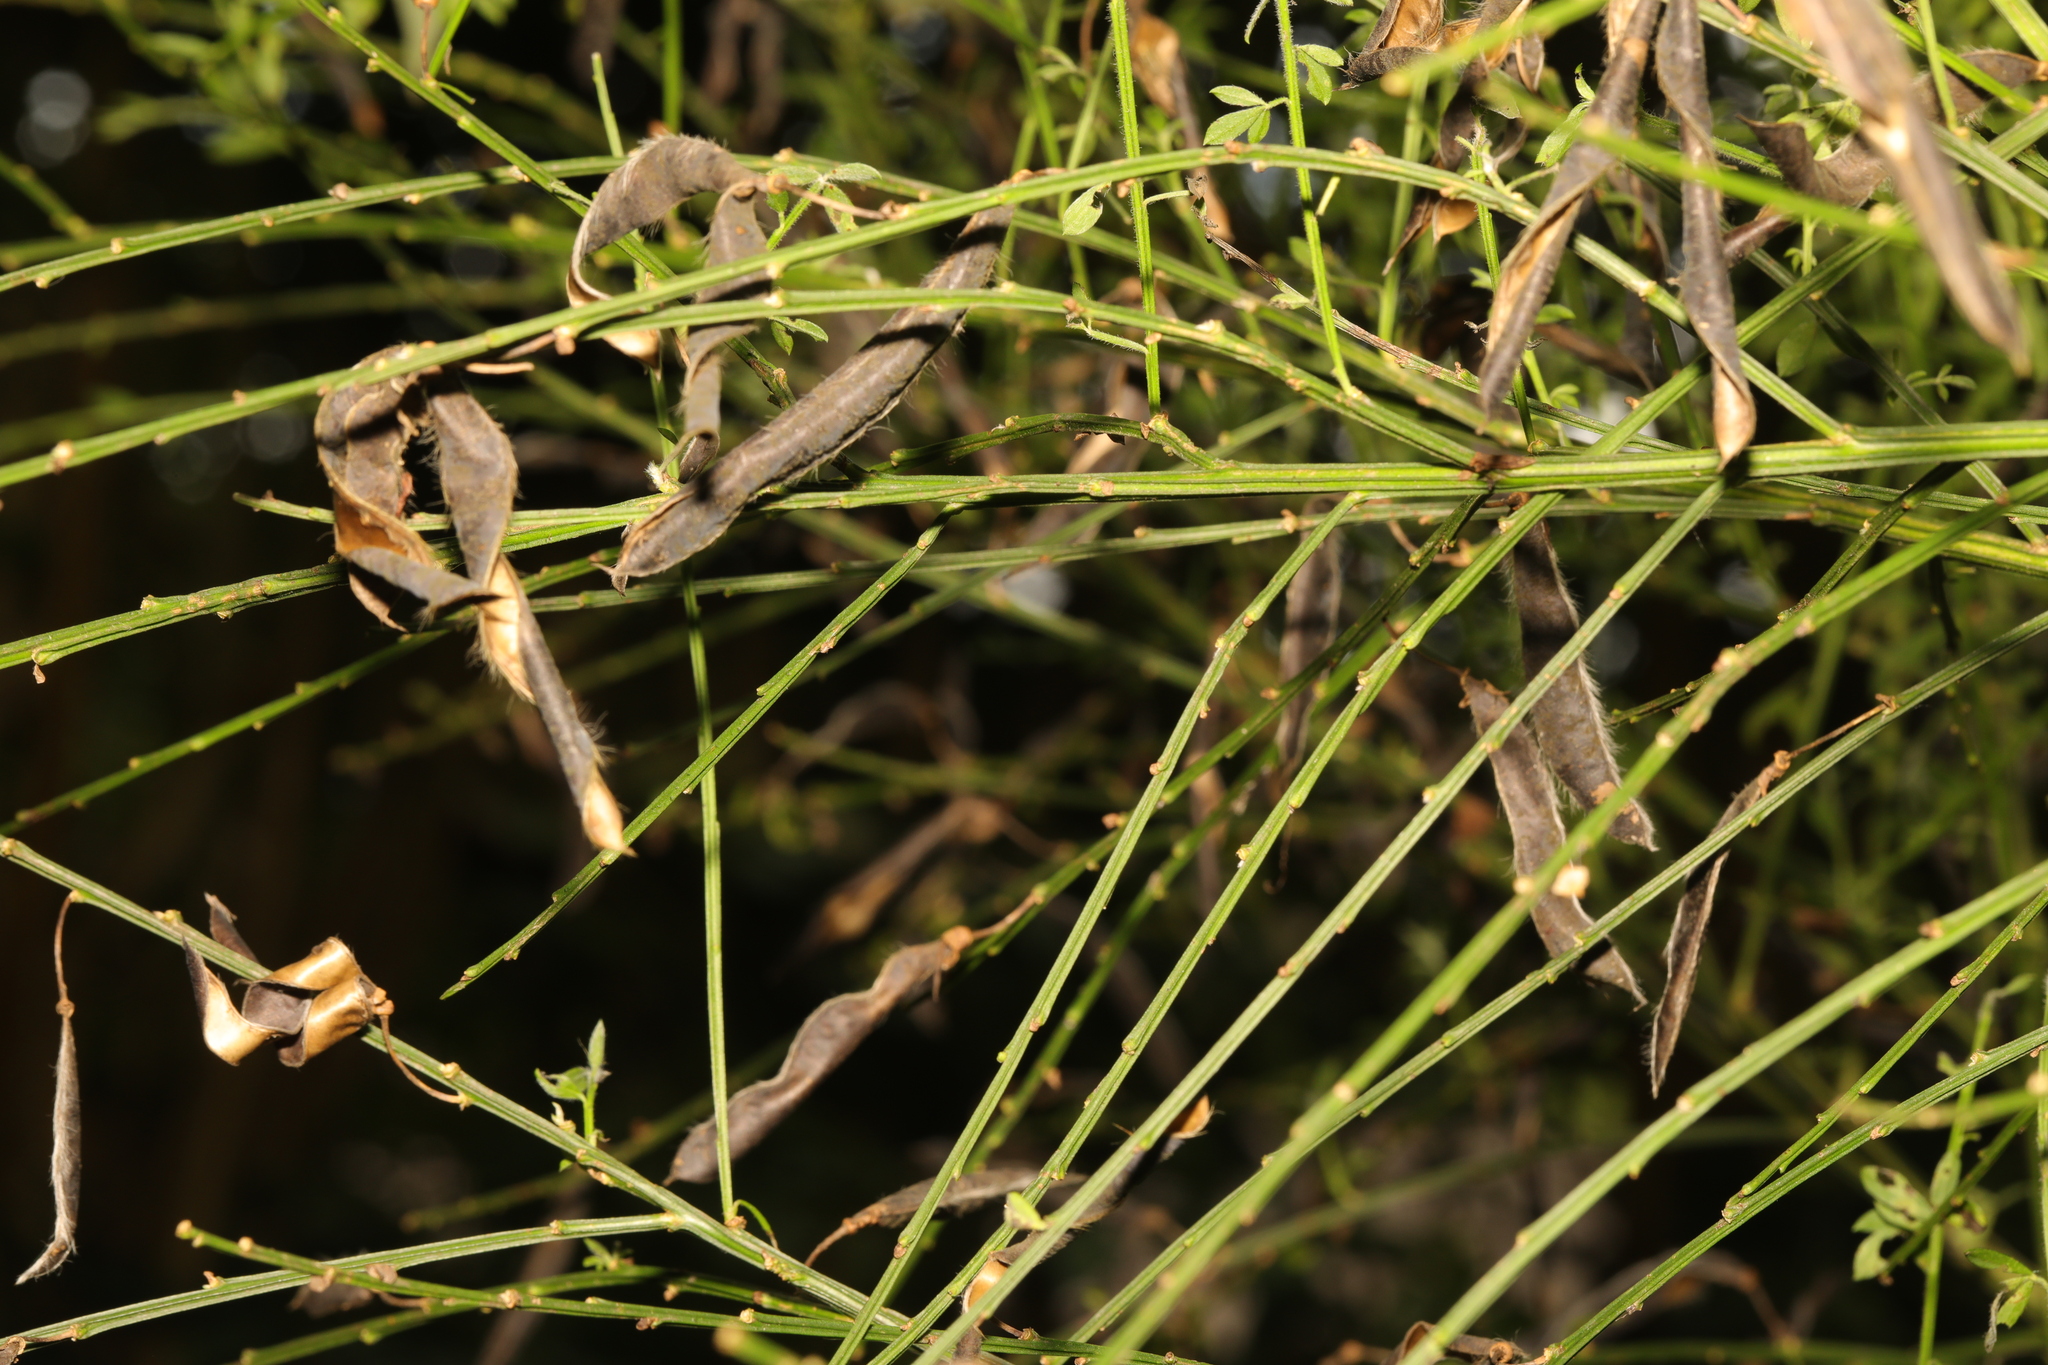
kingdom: Plantae
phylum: Tracheophyta
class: Magnoliopsida
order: Fabales
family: Fabaceae
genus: Cytisus
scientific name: Cytisus scoparius
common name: Scotch broom
